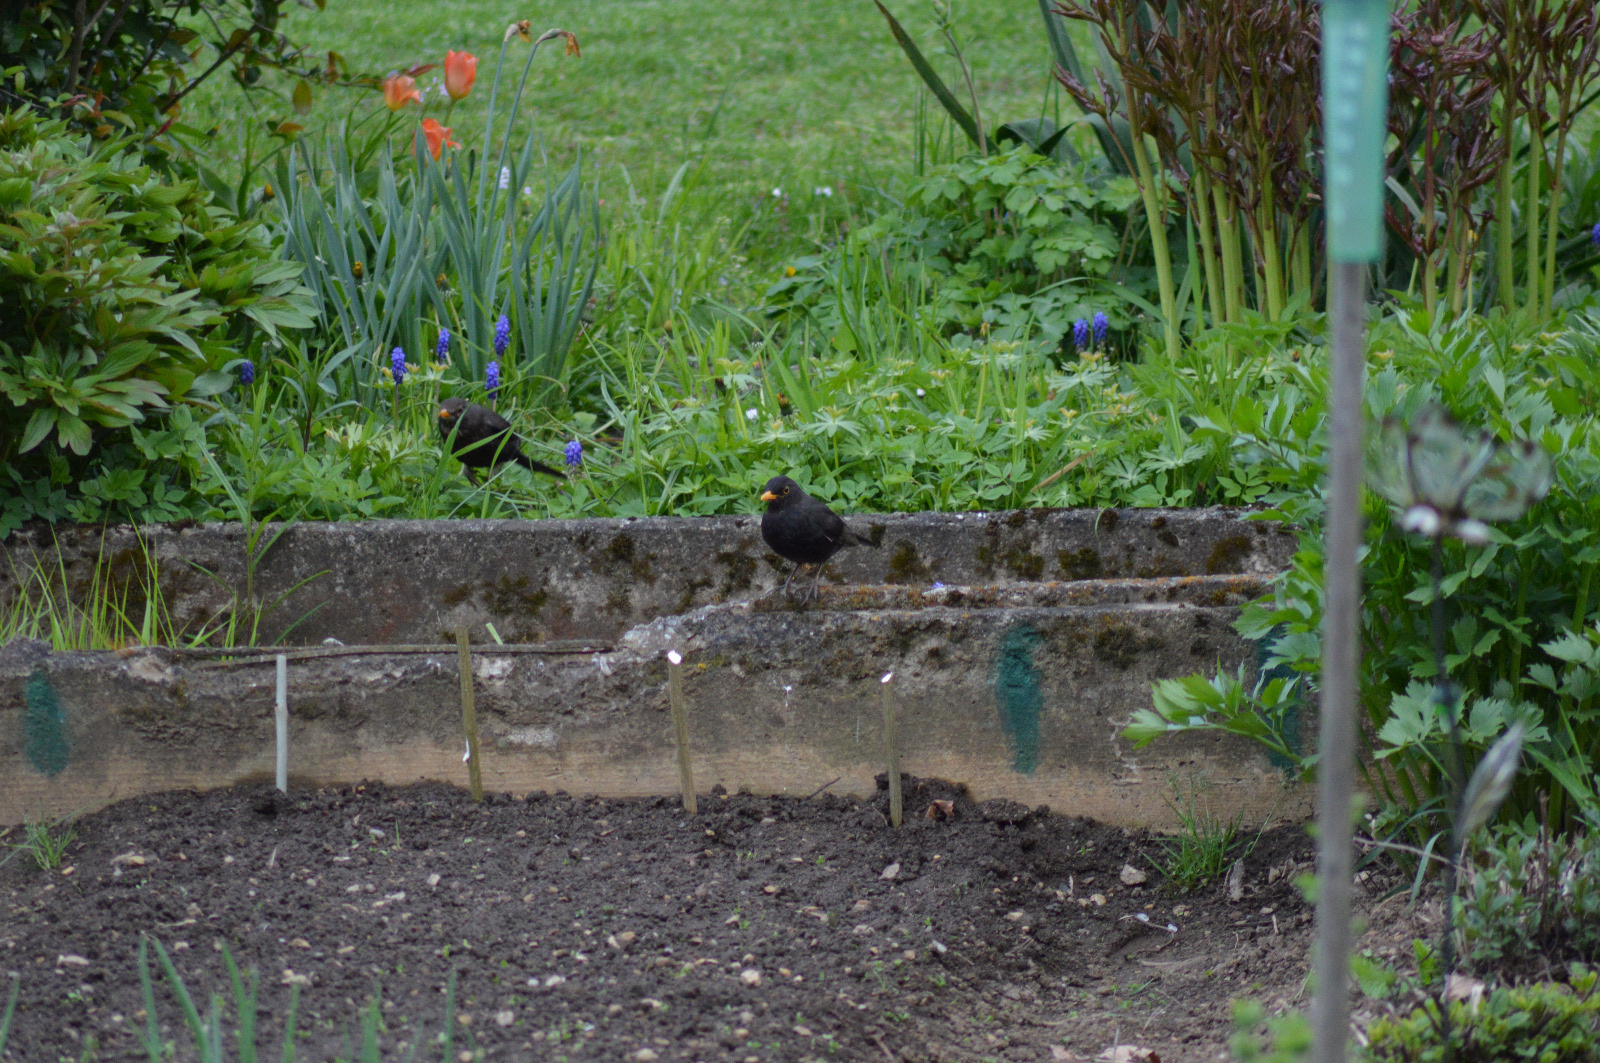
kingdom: Animalia
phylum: Chordata
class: Aves
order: Passeriformes
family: Turdidae
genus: Turdus
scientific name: Turdus merula
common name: Common blackbird
